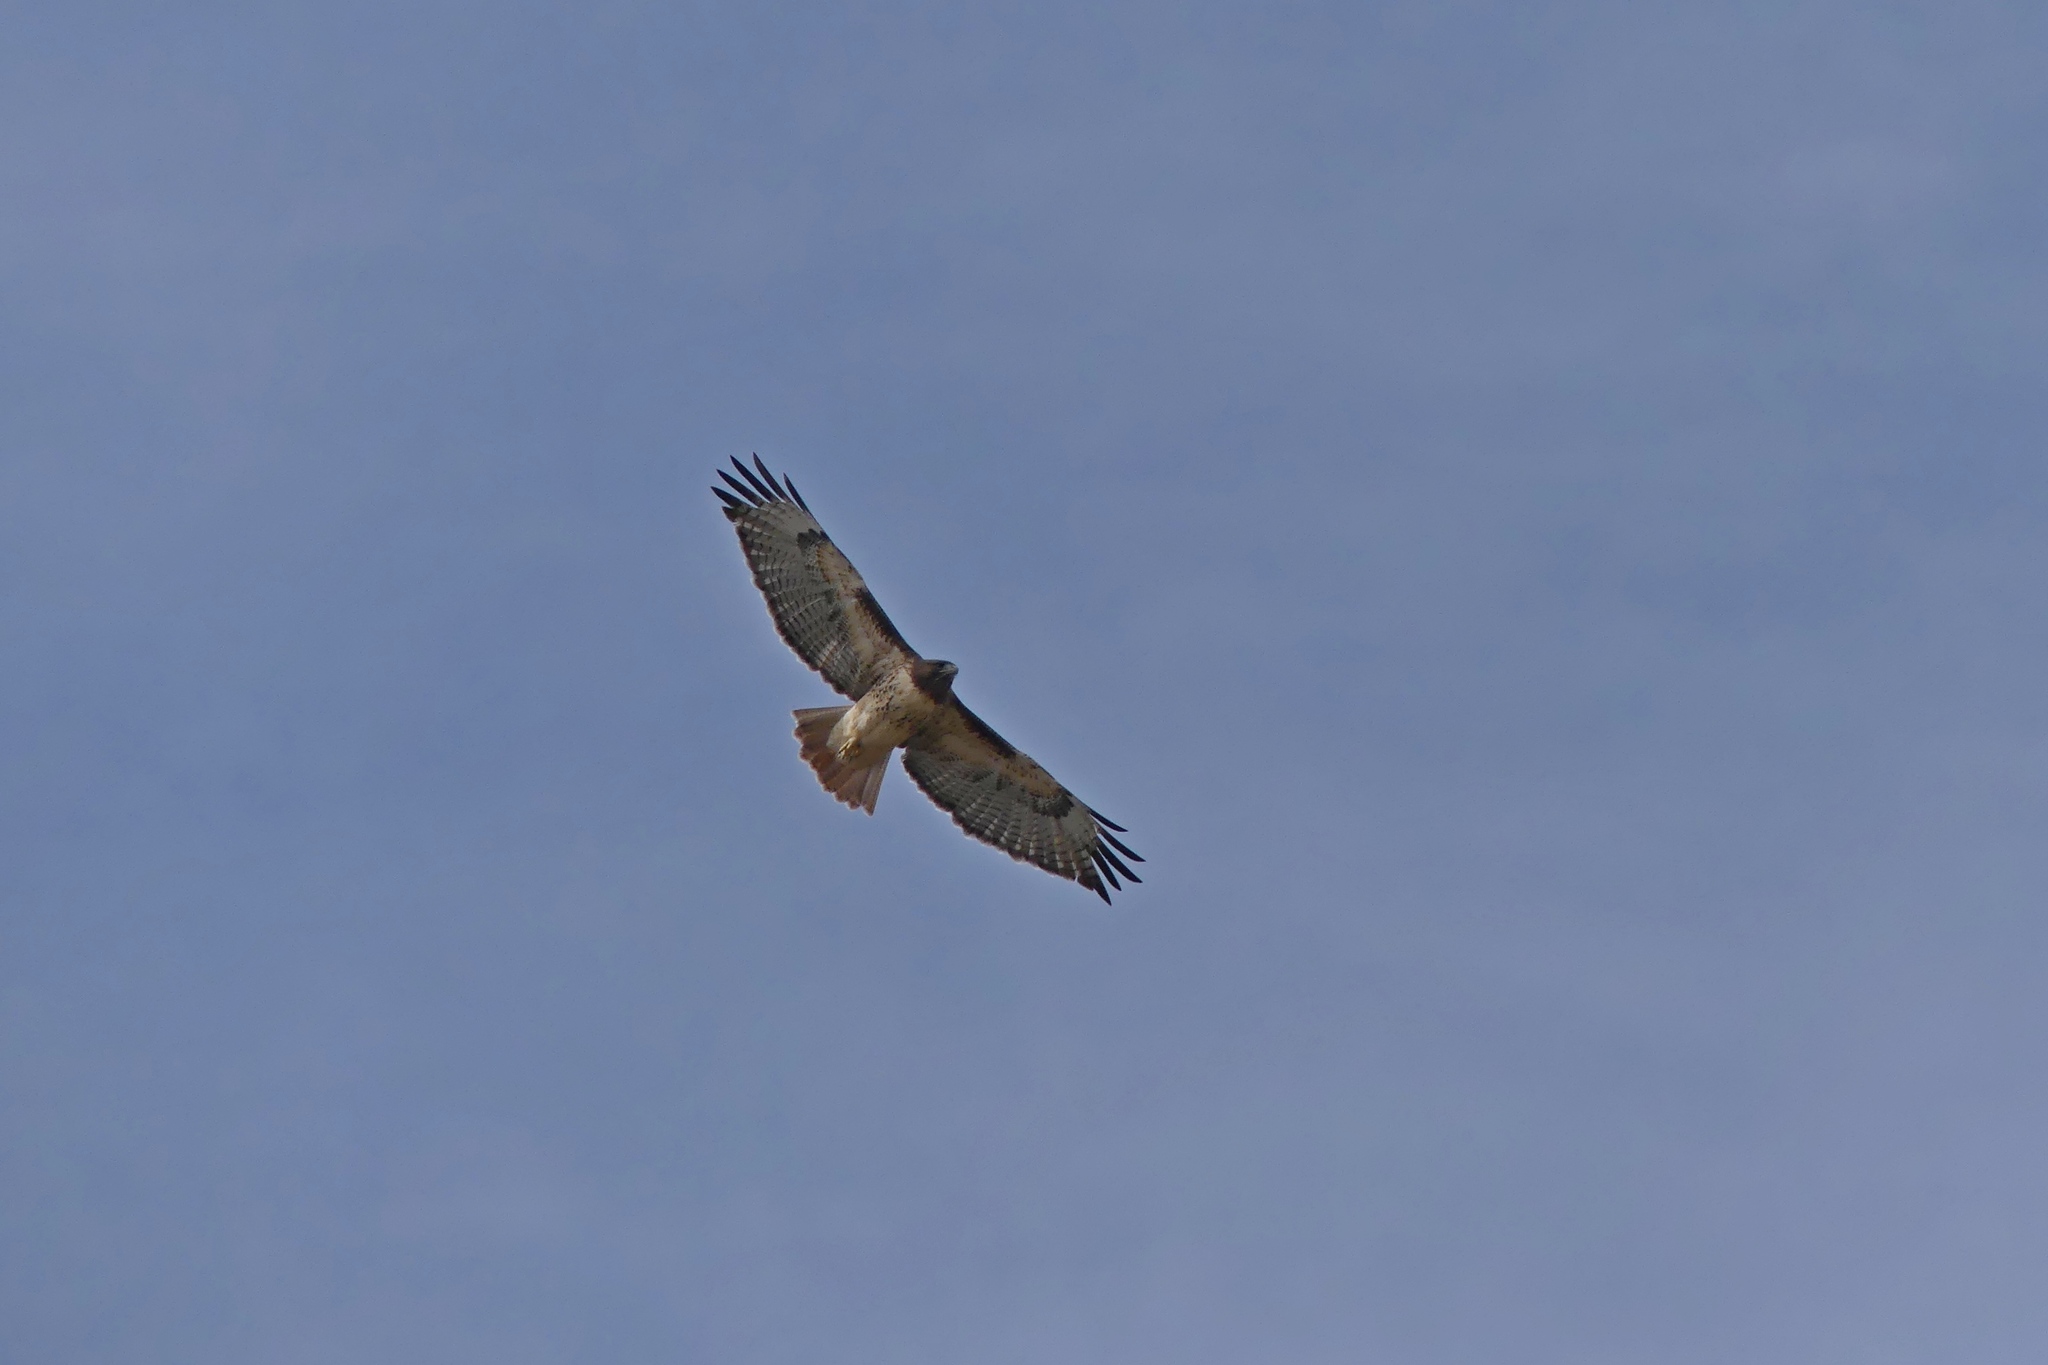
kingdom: Animalia
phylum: Chordata
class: Aves
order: Accipitriformes
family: Accipitridae
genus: Buteo
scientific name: Buteo jamaicensis
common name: Red-tailed hawk
